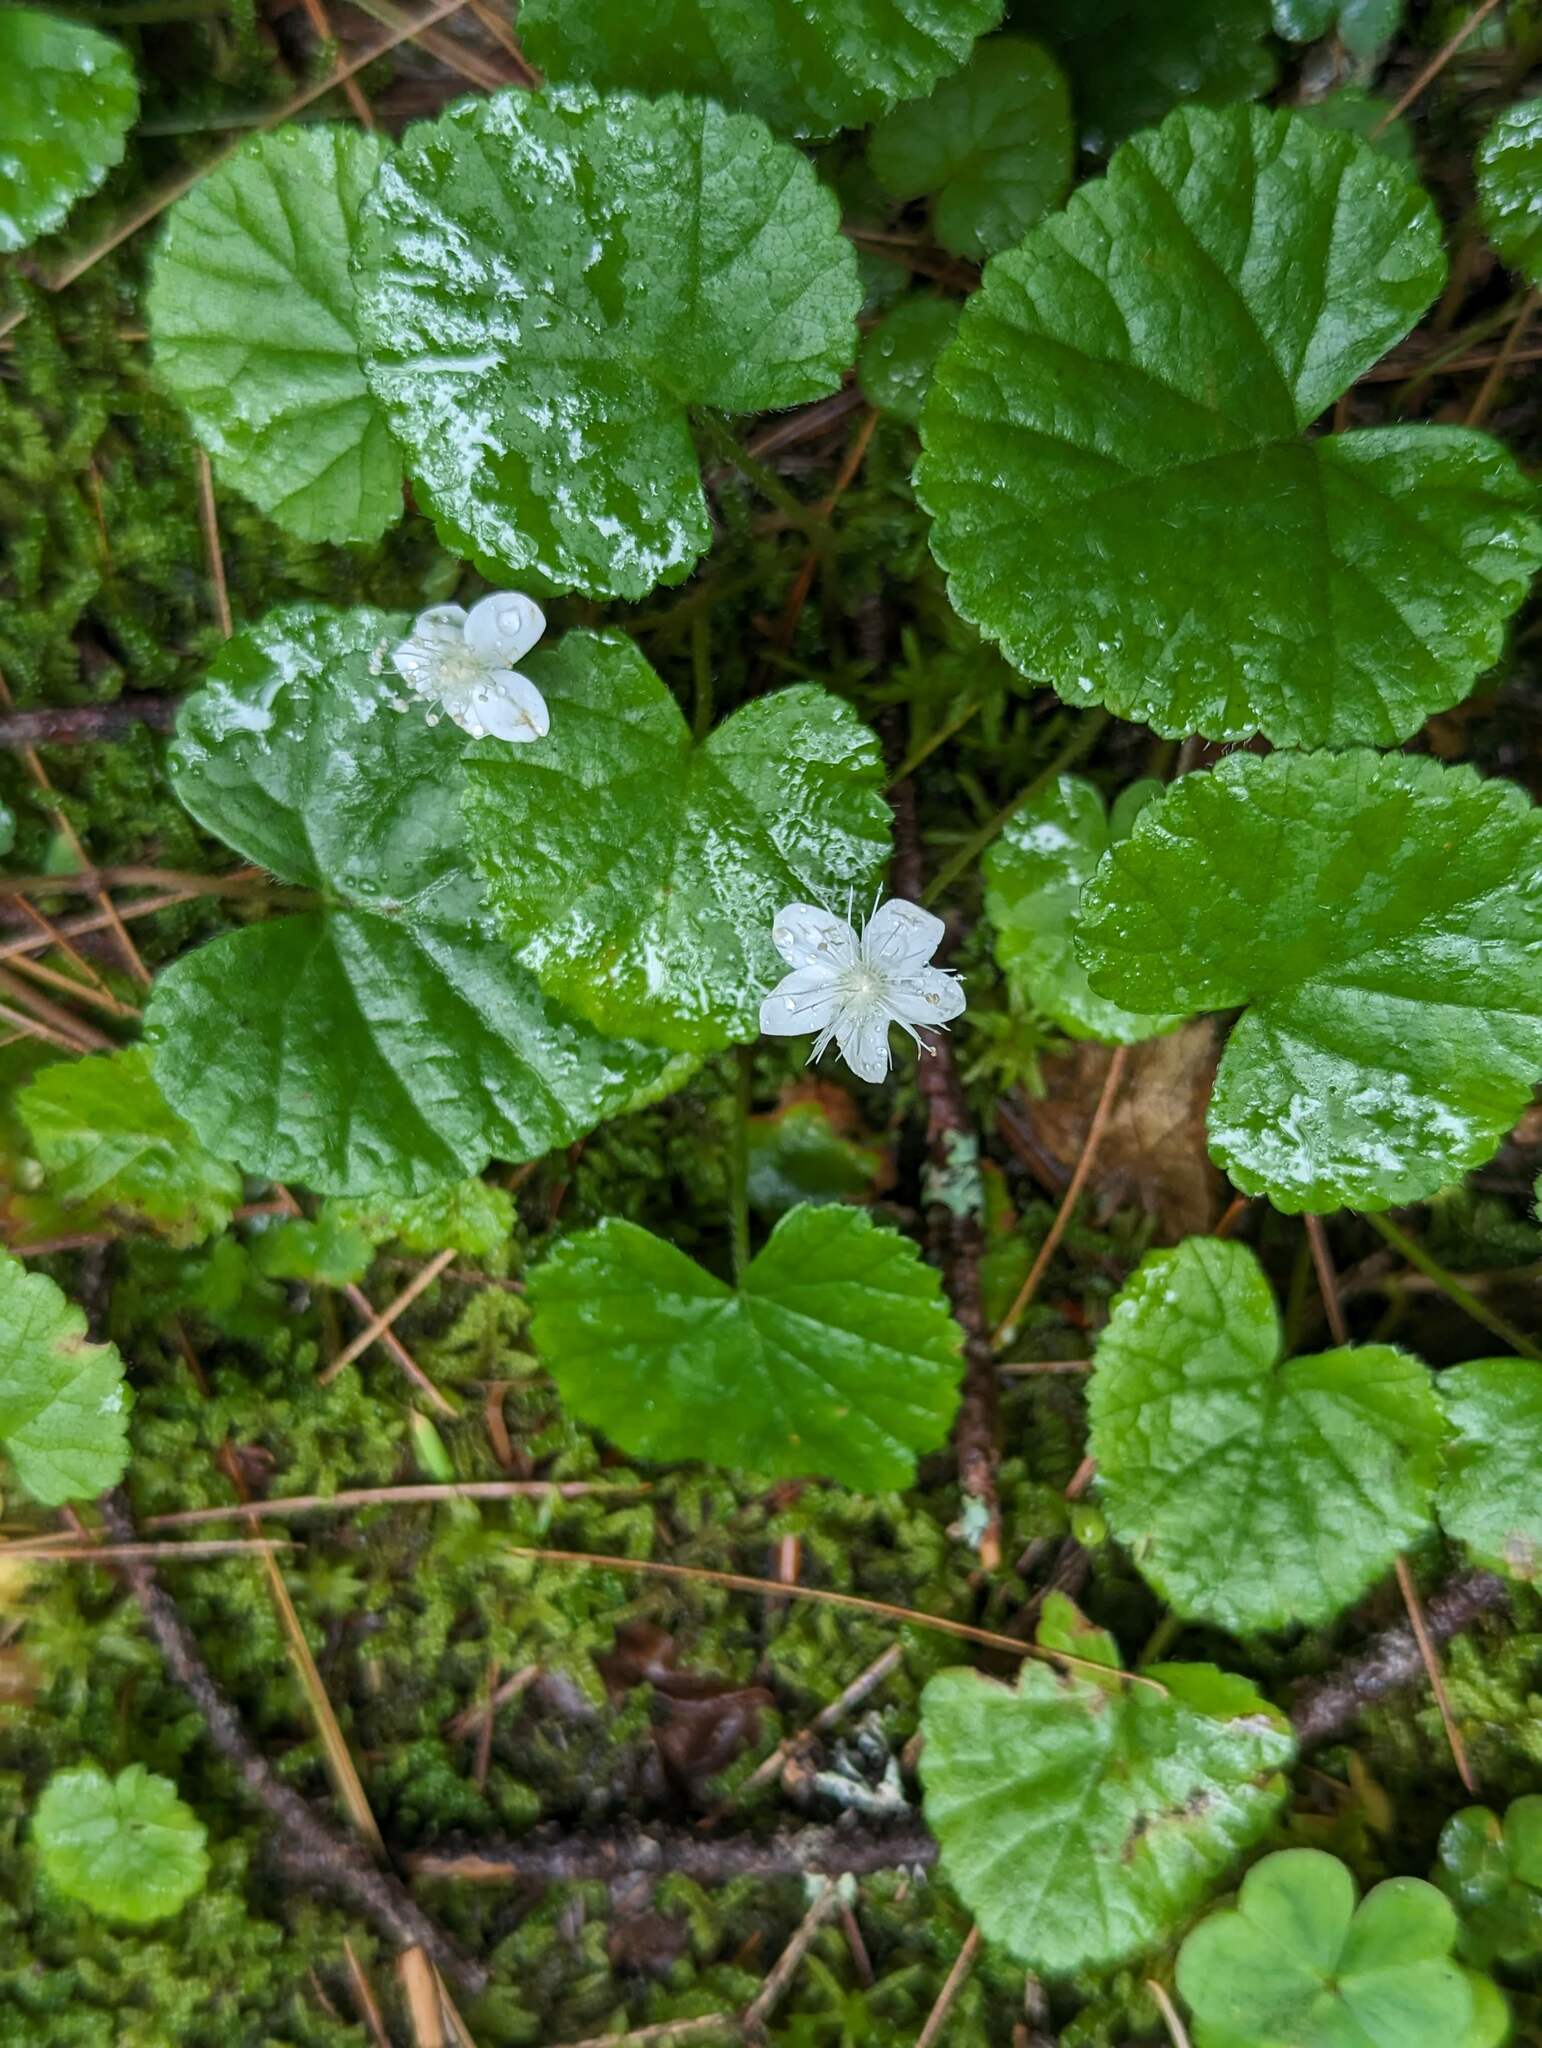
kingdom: Plantae
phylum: Tracheophyta
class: Magnoliopsida
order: Rosales
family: Rosaceae
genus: Dalibarda
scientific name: Dalibarda repens
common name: Dewdrop
